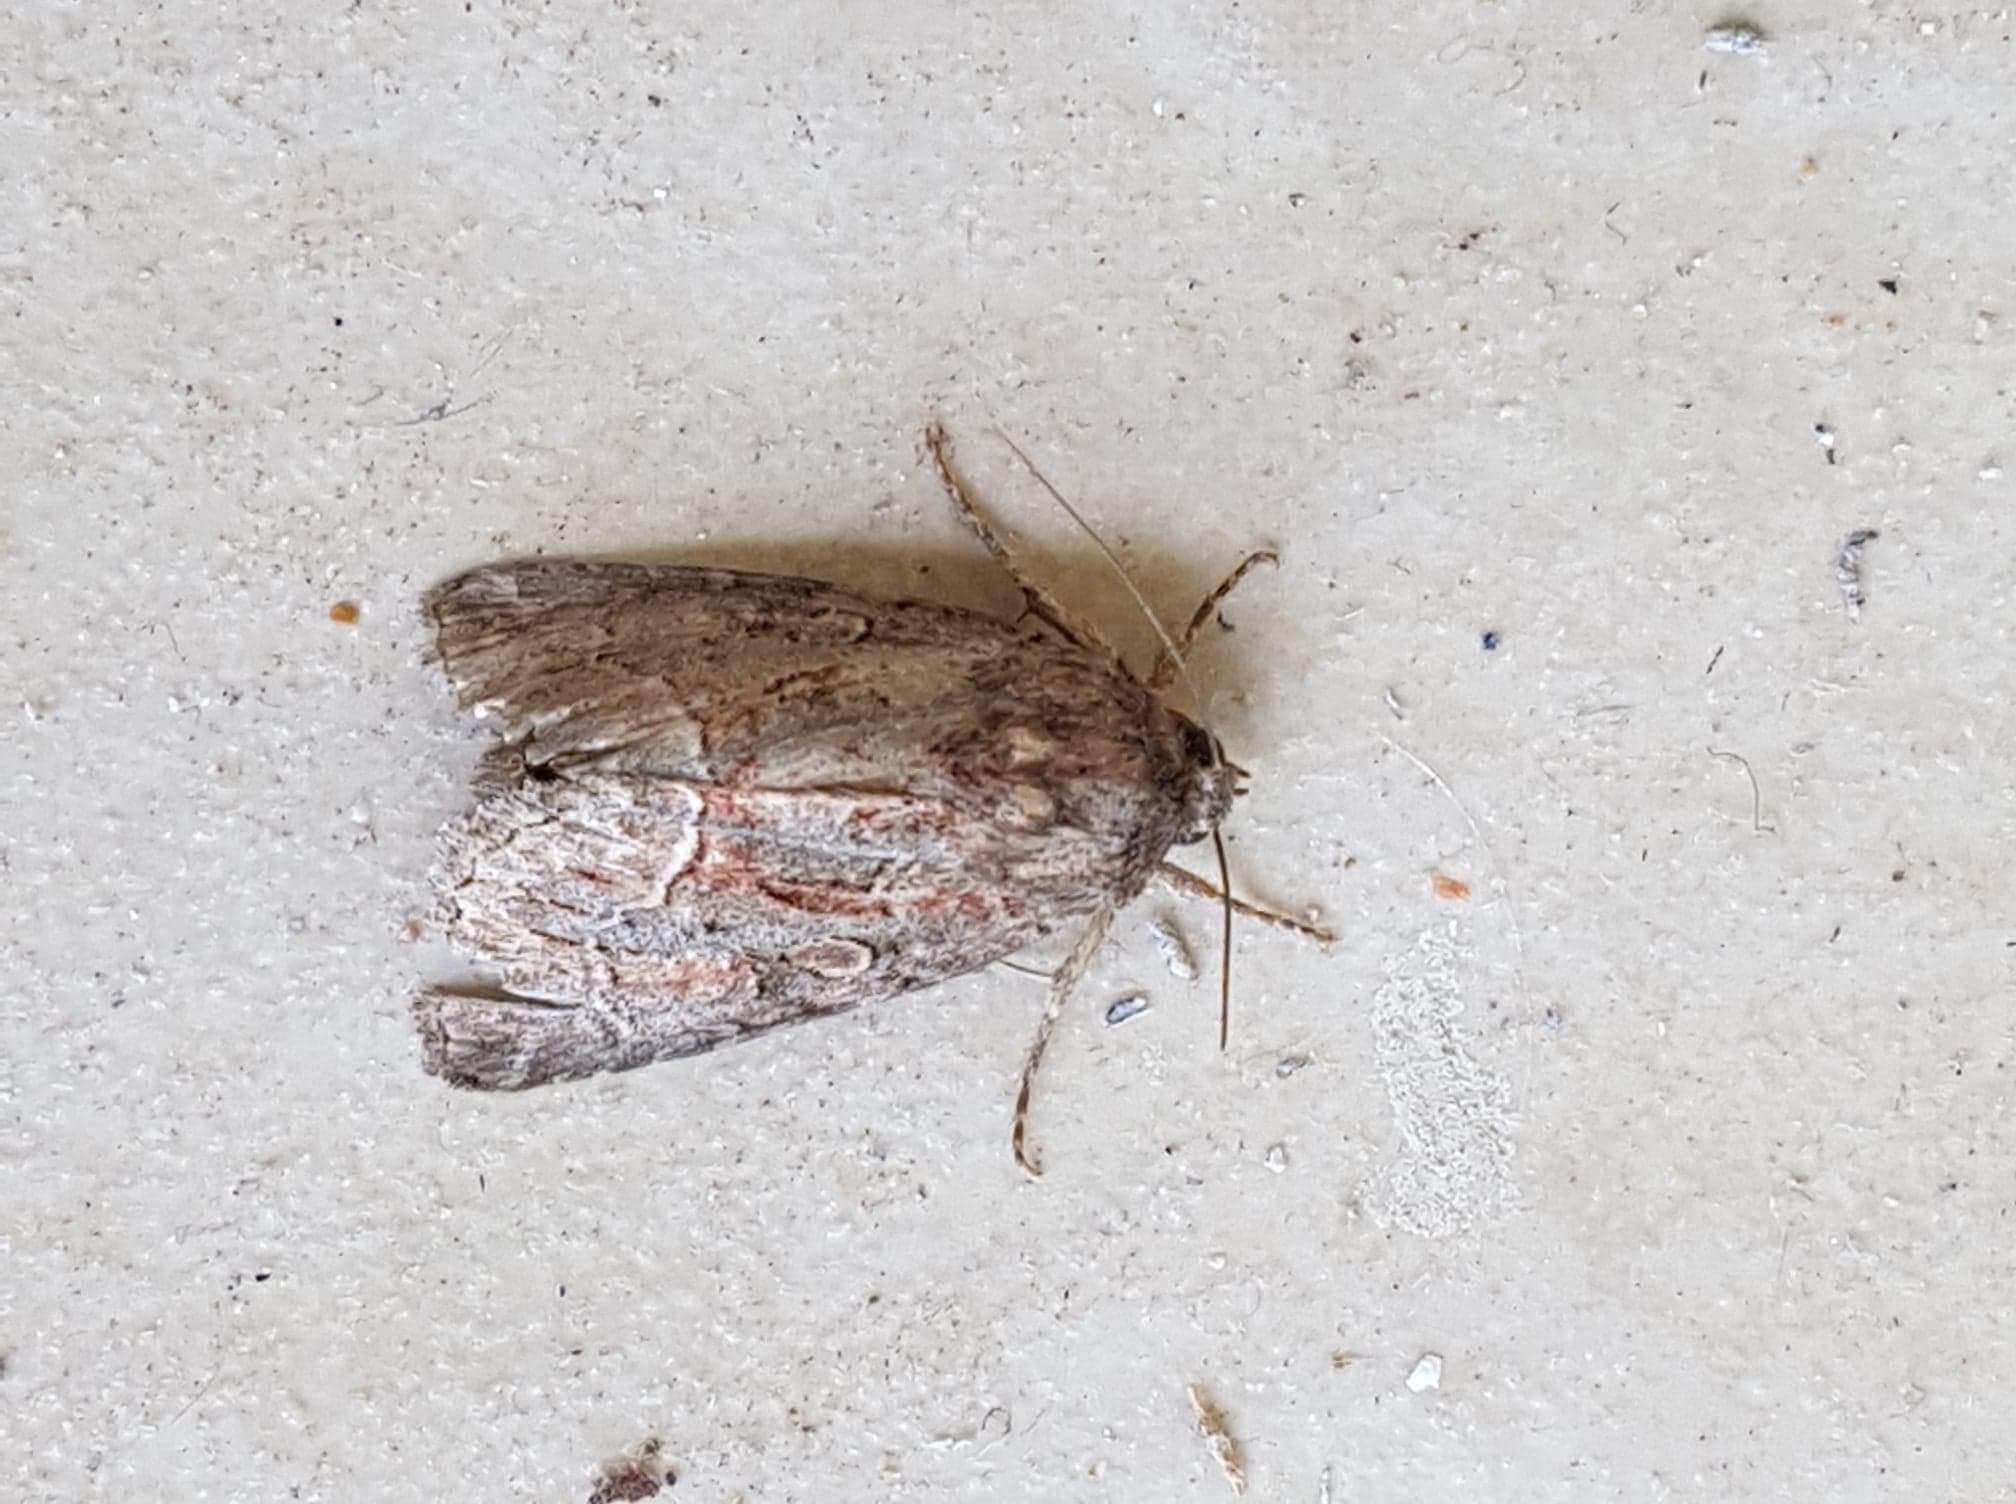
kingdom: Animalia
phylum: Arthropoda
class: Insecta
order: Lepidoptera
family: Noctuidae
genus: Thalpophila
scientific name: Thalpophila matura
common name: Straw underwing
